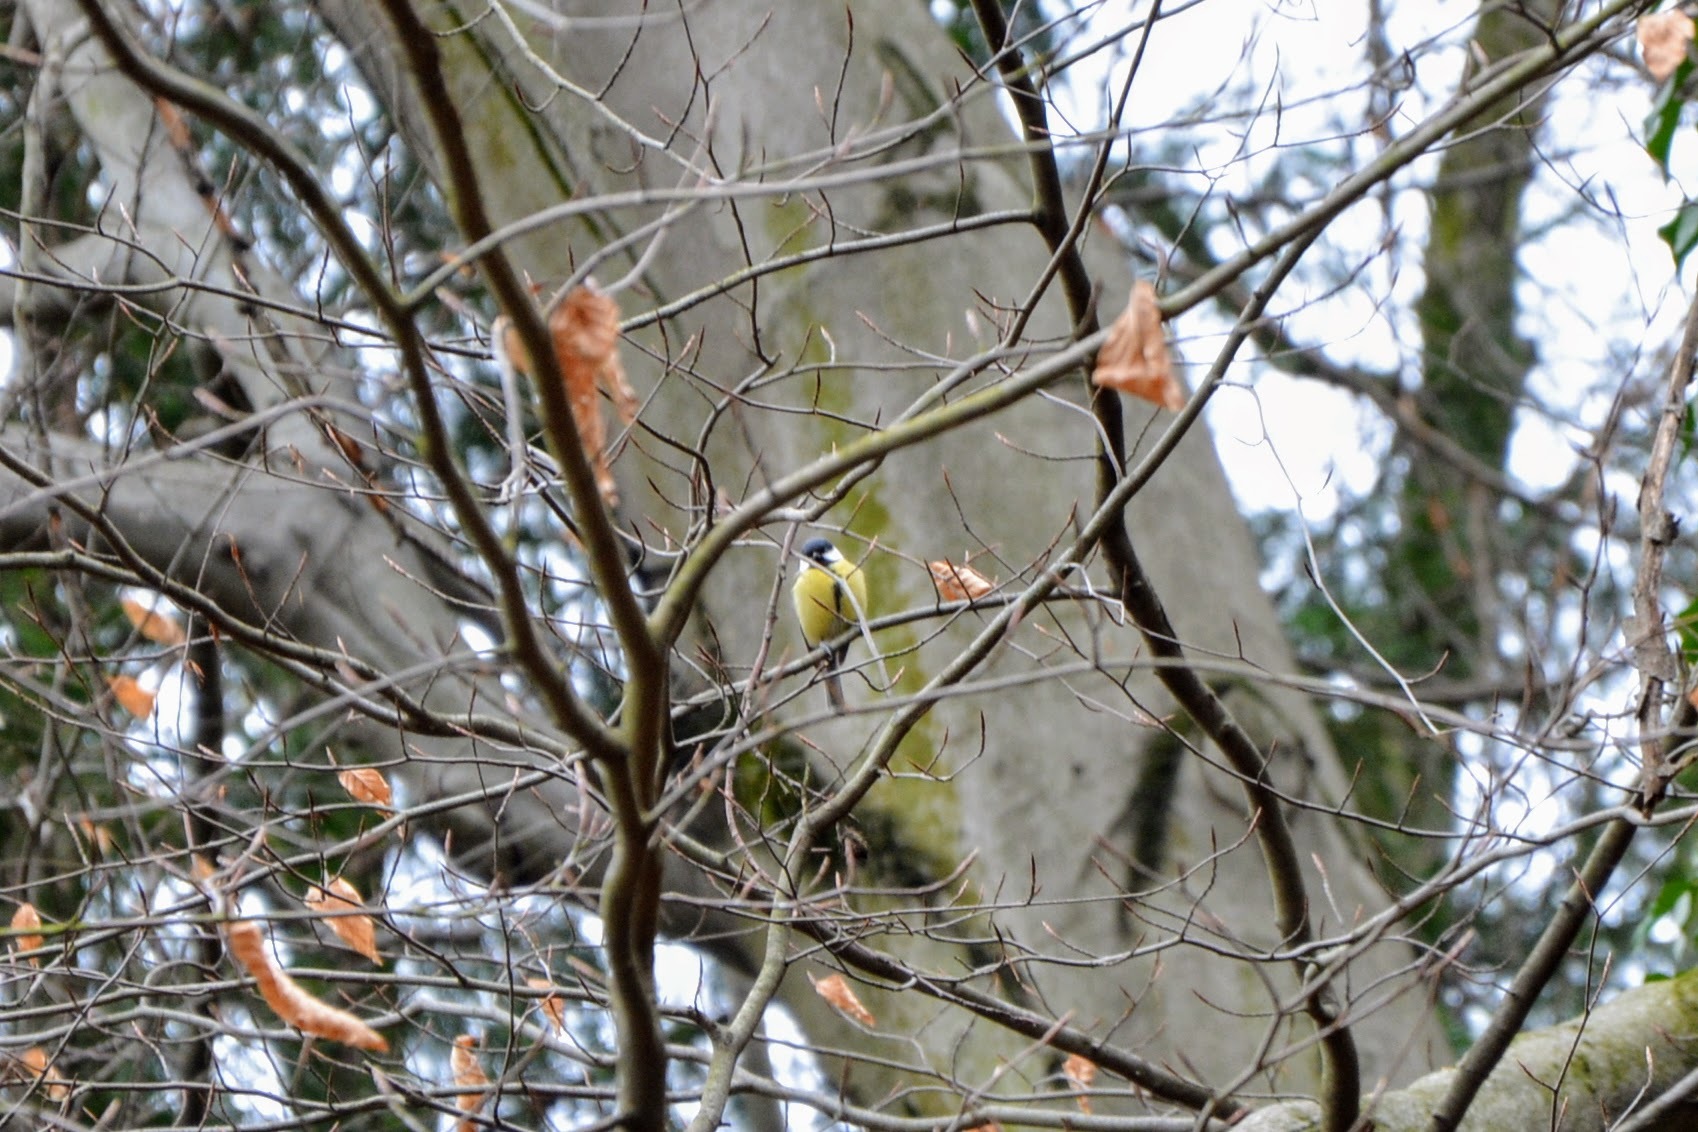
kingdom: Animalia
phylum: Chordata
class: Aves
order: Passeriformes
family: Paridae
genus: Parus
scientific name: Parus major
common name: Great tit
